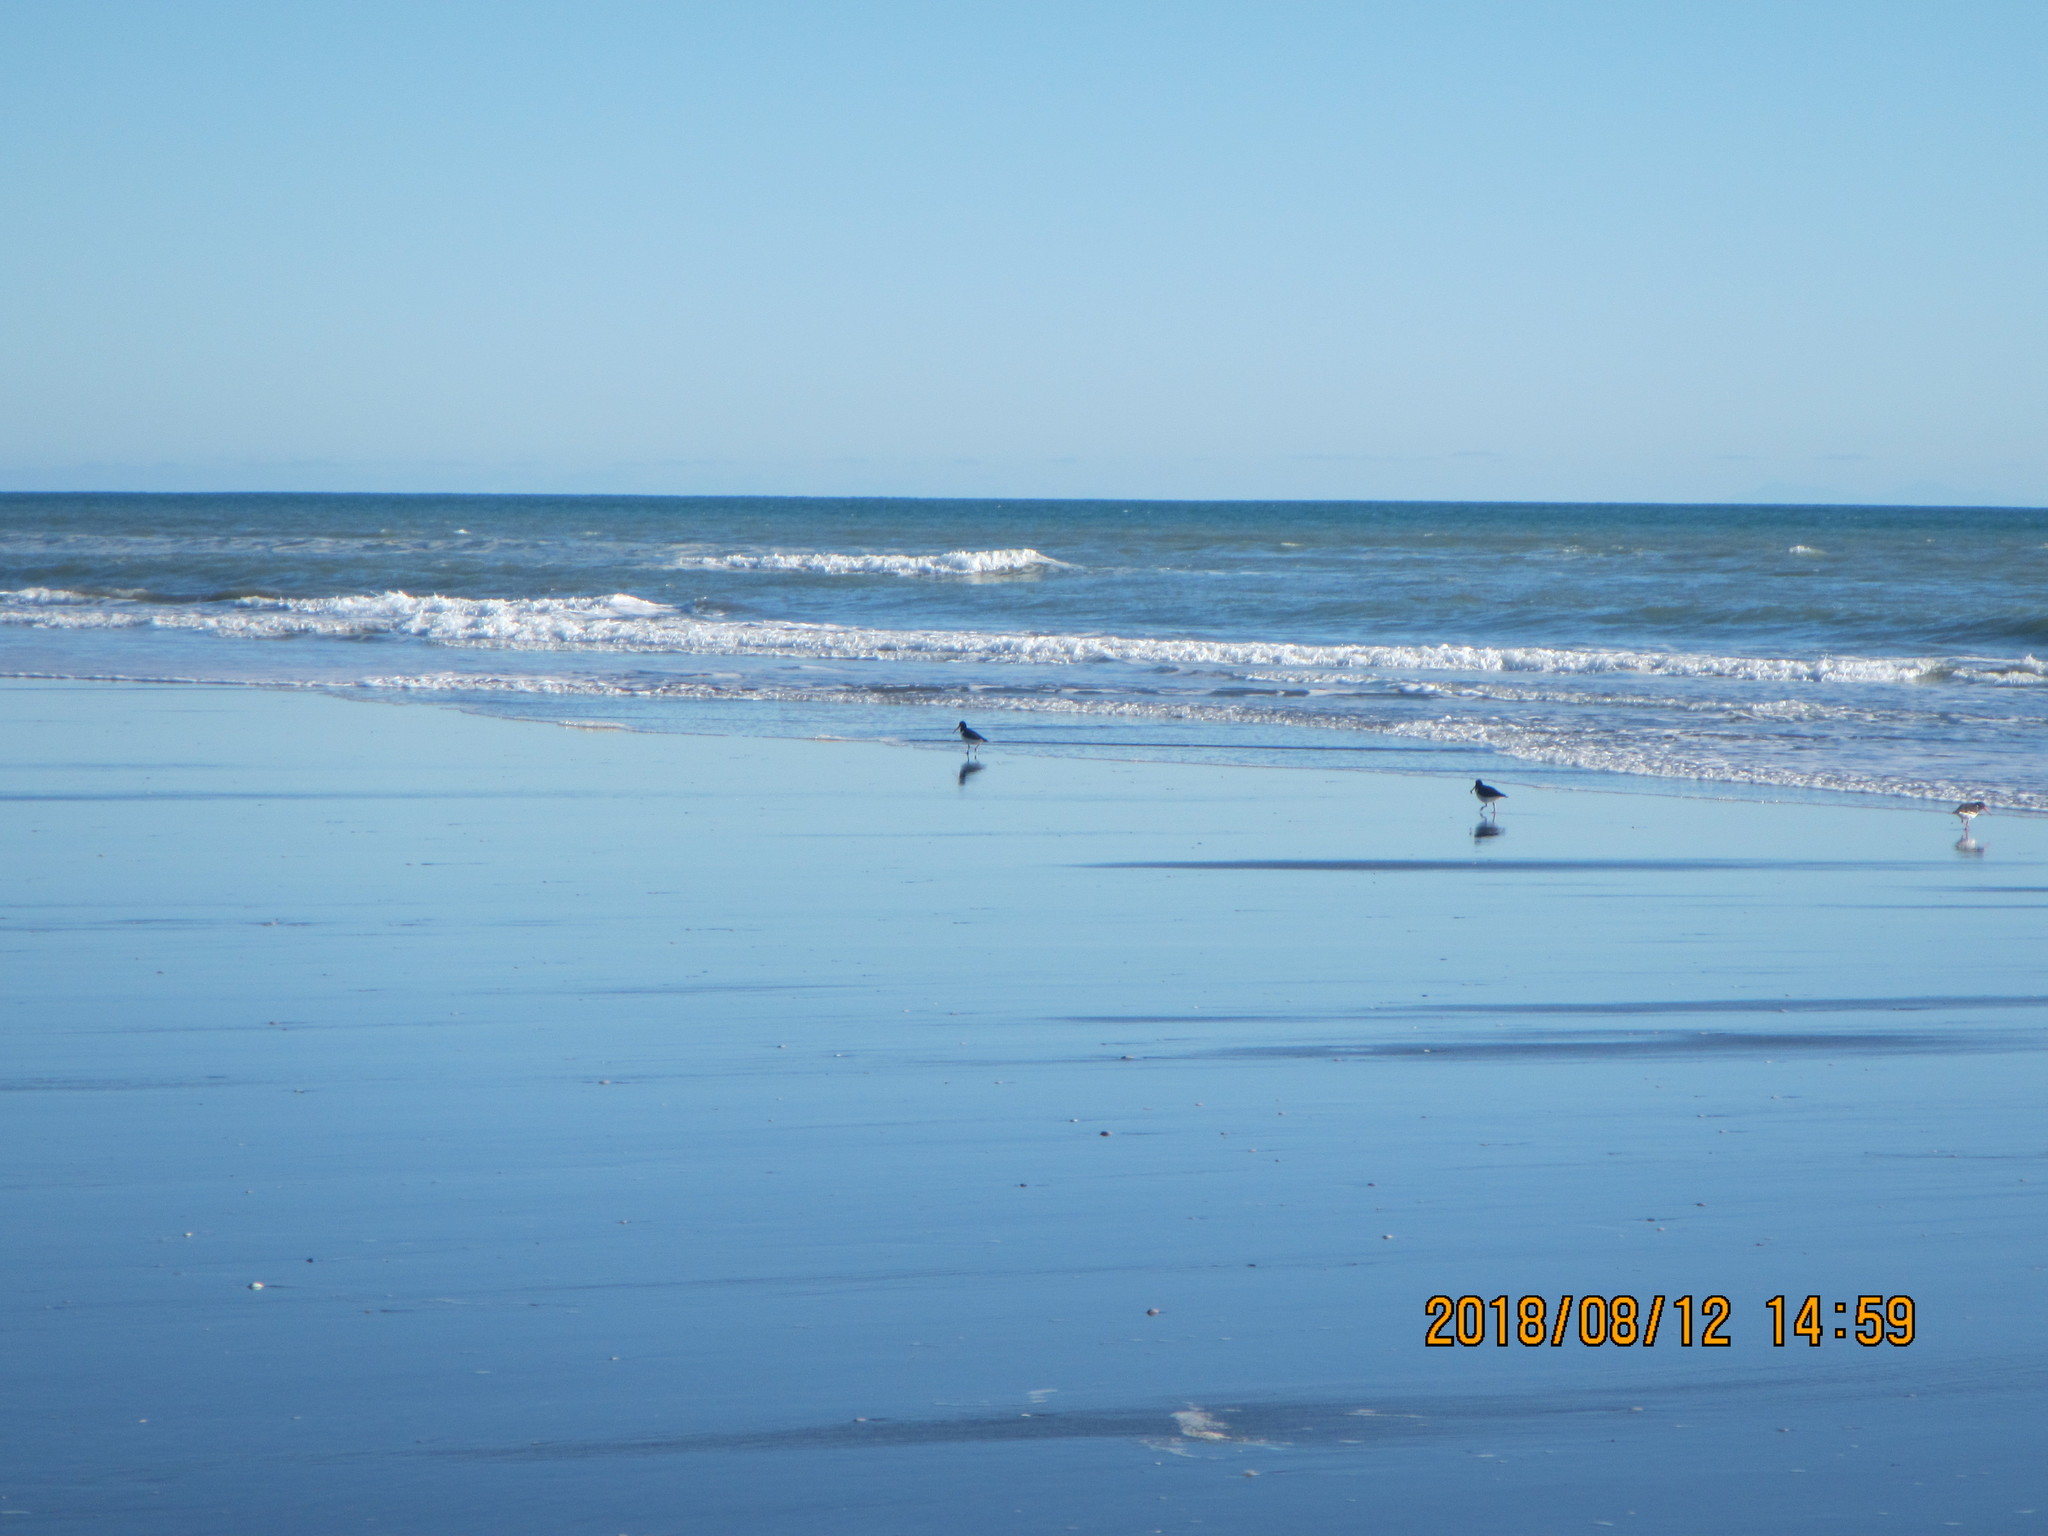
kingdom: Animalia
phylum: Chordata
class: Aves
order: Charadriiformes
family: Haematopodidae
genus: Haematopus
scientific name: Haematopus finschi
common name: South island oystercatcher
